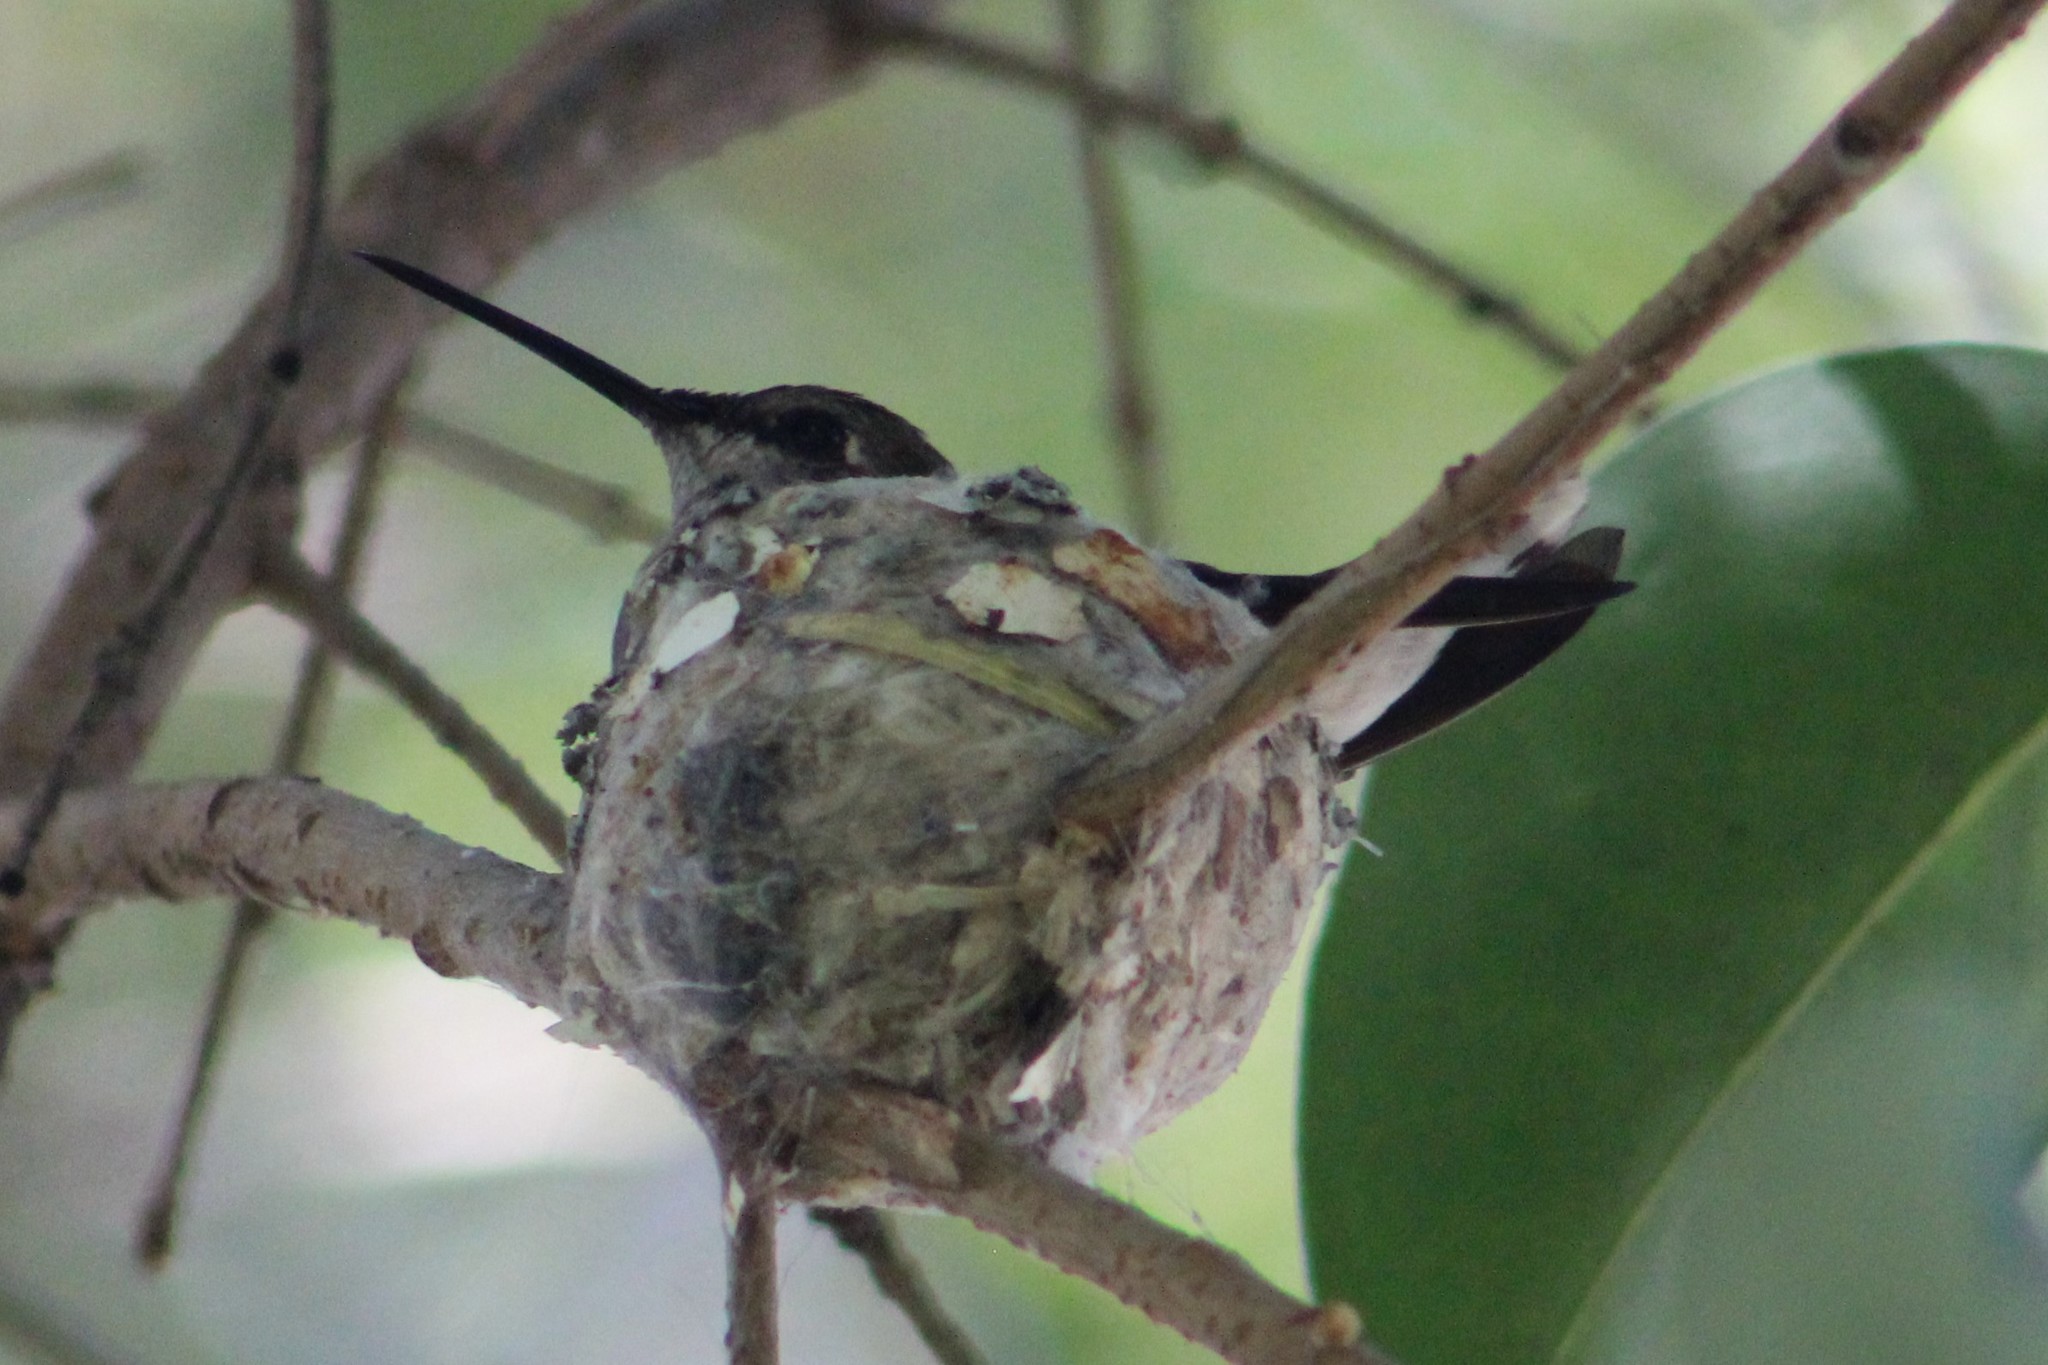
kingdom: Animalia
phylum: Chordata
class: Aves
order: Apodiformes
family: Trochilidae
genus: Archilochus
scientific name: Archilochus alexandri
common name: Black-chinned hummingbird
